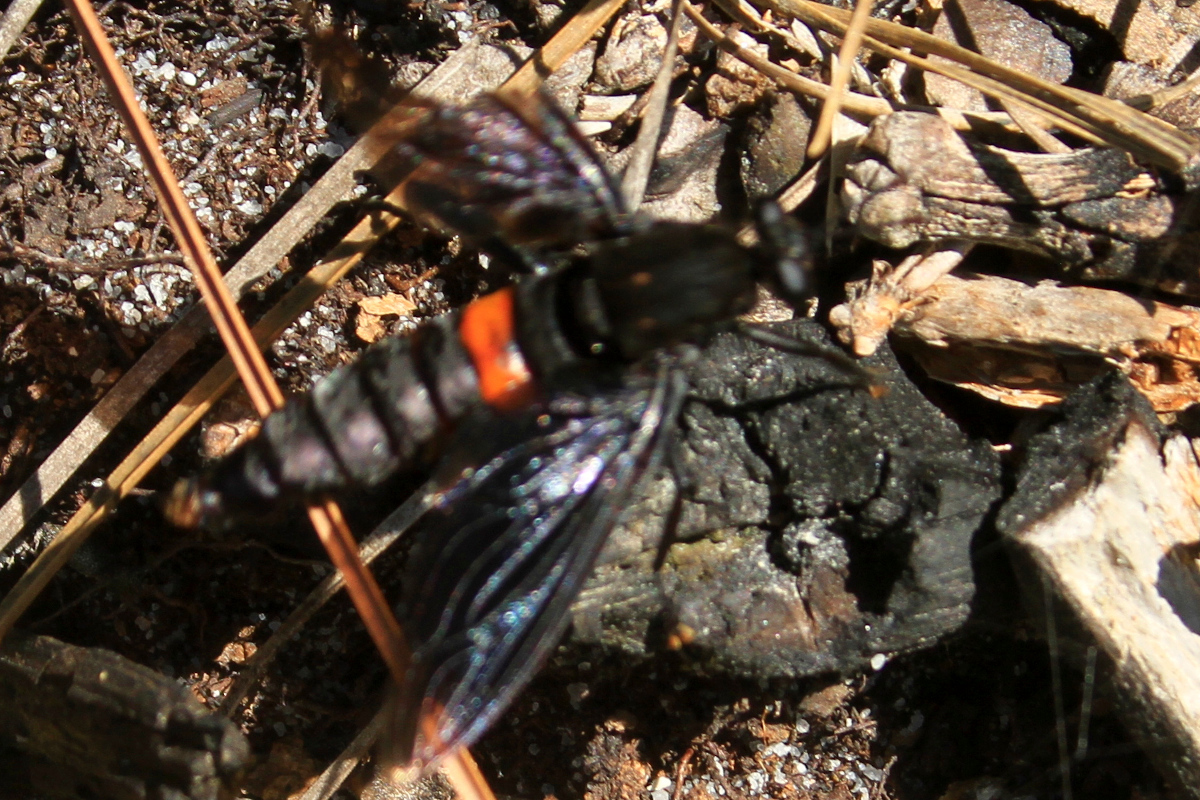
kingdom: Animalia
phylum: Arthropoda
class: Insecta
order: Diptera
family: Mydidae
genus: Mydas
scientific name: Mydas clavatus
